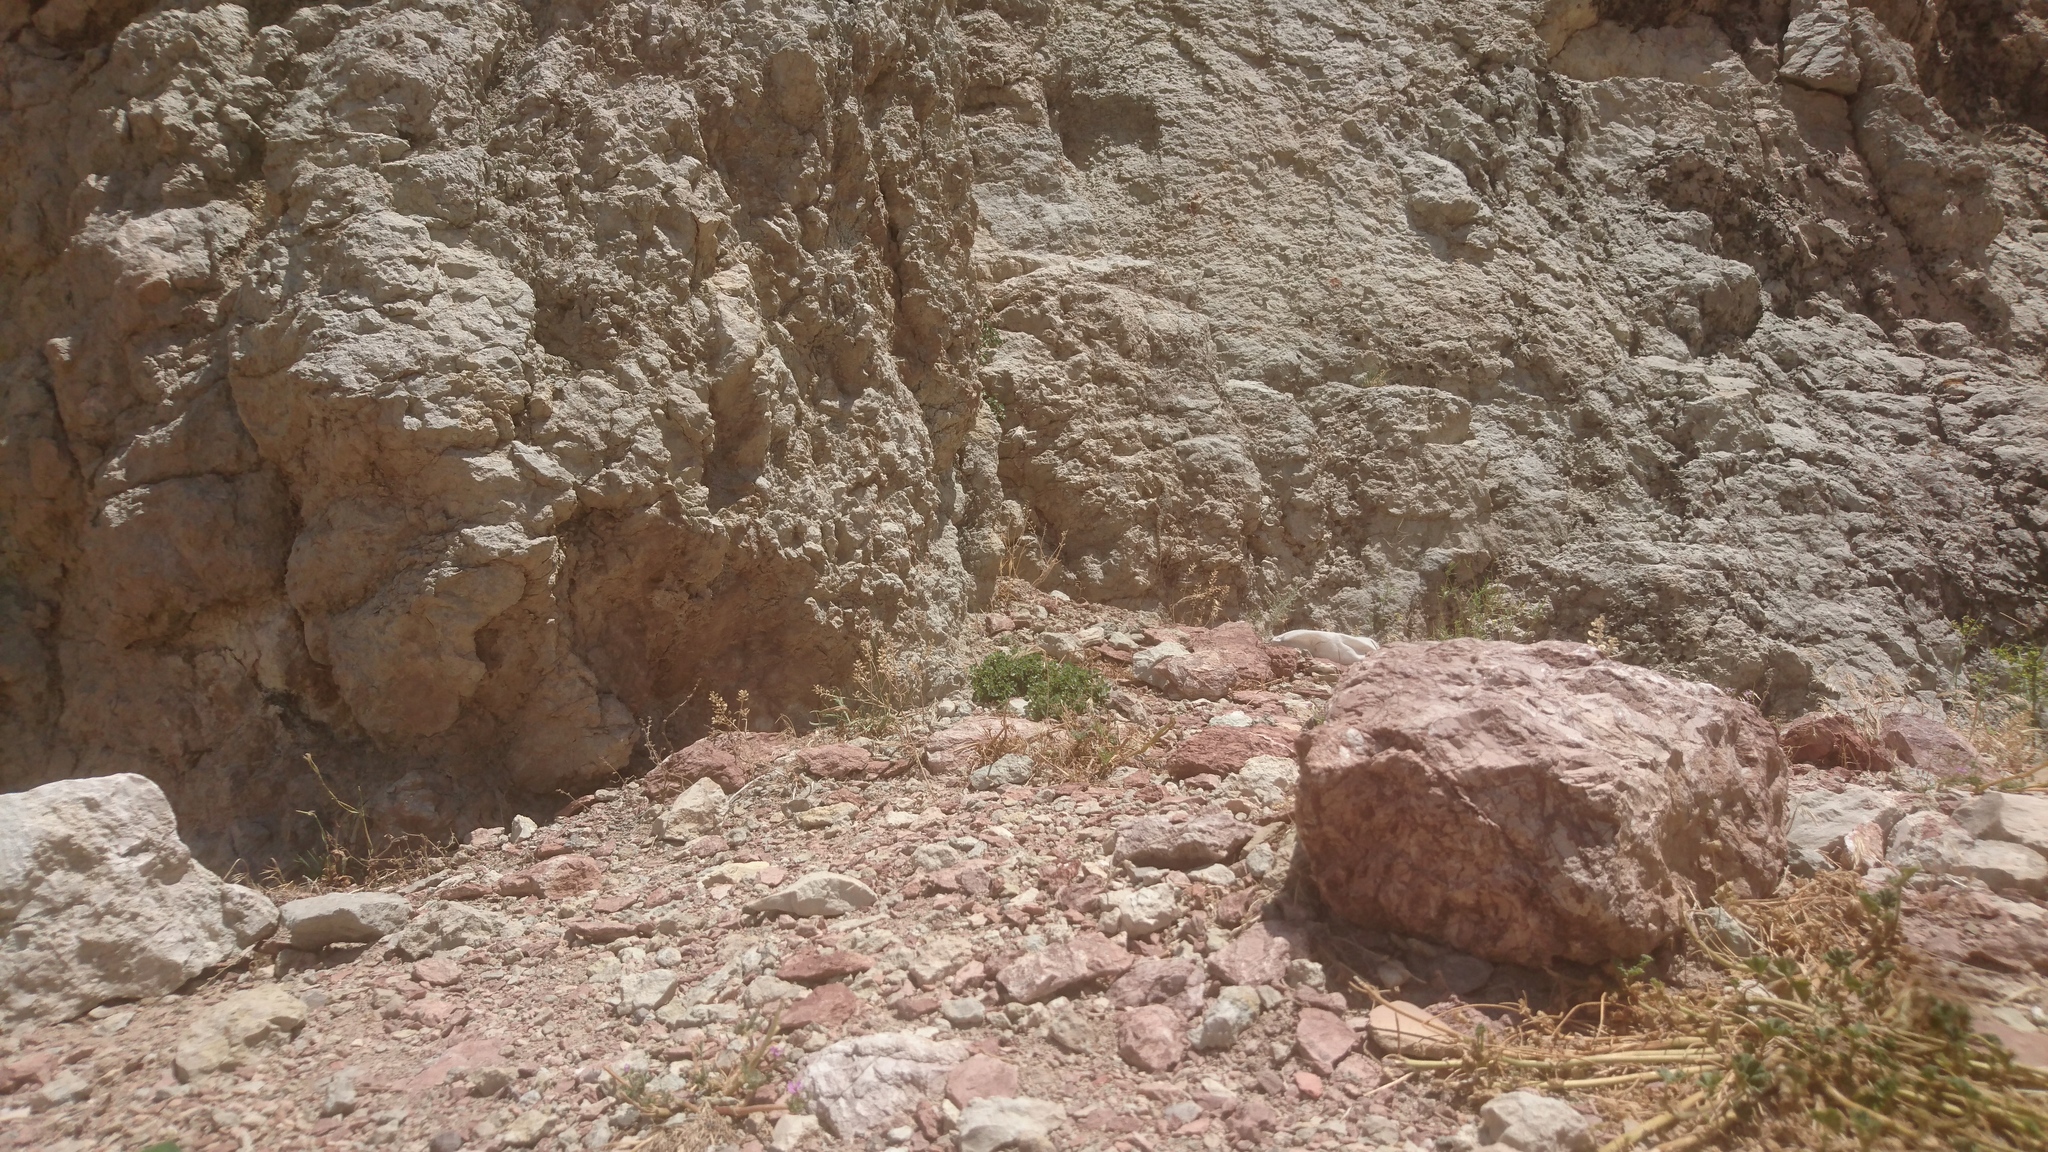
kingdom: Animalia
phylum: Chordata
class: Squamata
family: Agamidae
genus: Paralaudakia
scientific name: Paralaudakia caucasia
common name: Caucasian agama
